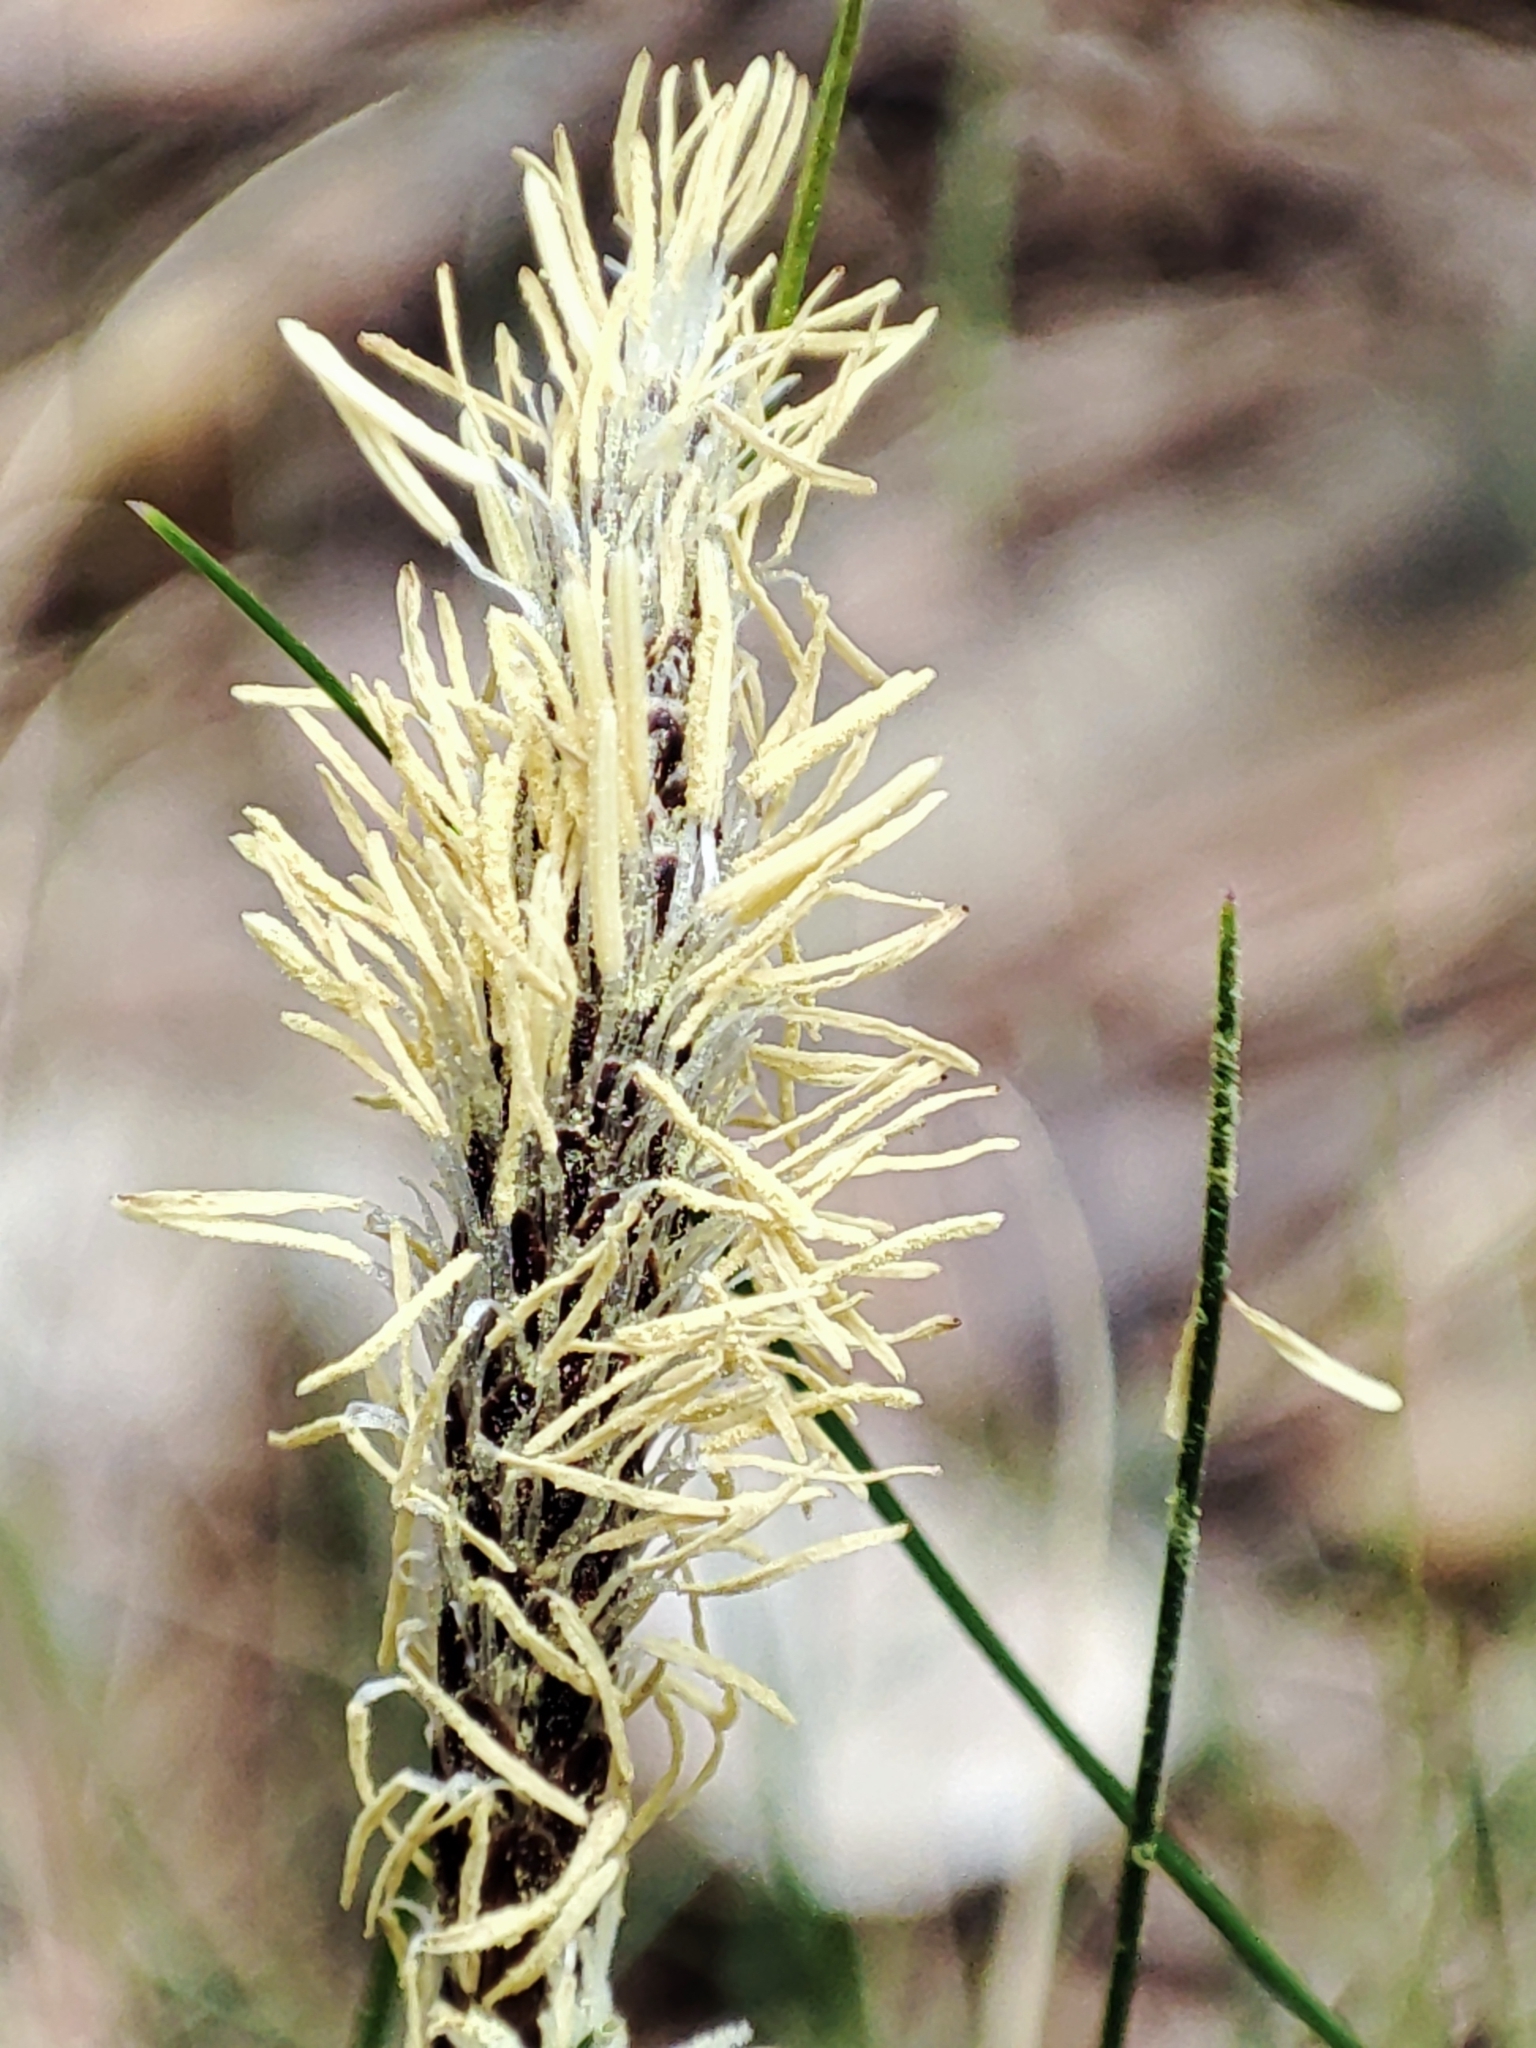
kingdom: Plantae
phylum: Tracheophyta
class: Liliopsida
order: Poales
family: Cyperaceae
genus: Carex
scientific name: Carex michelii
